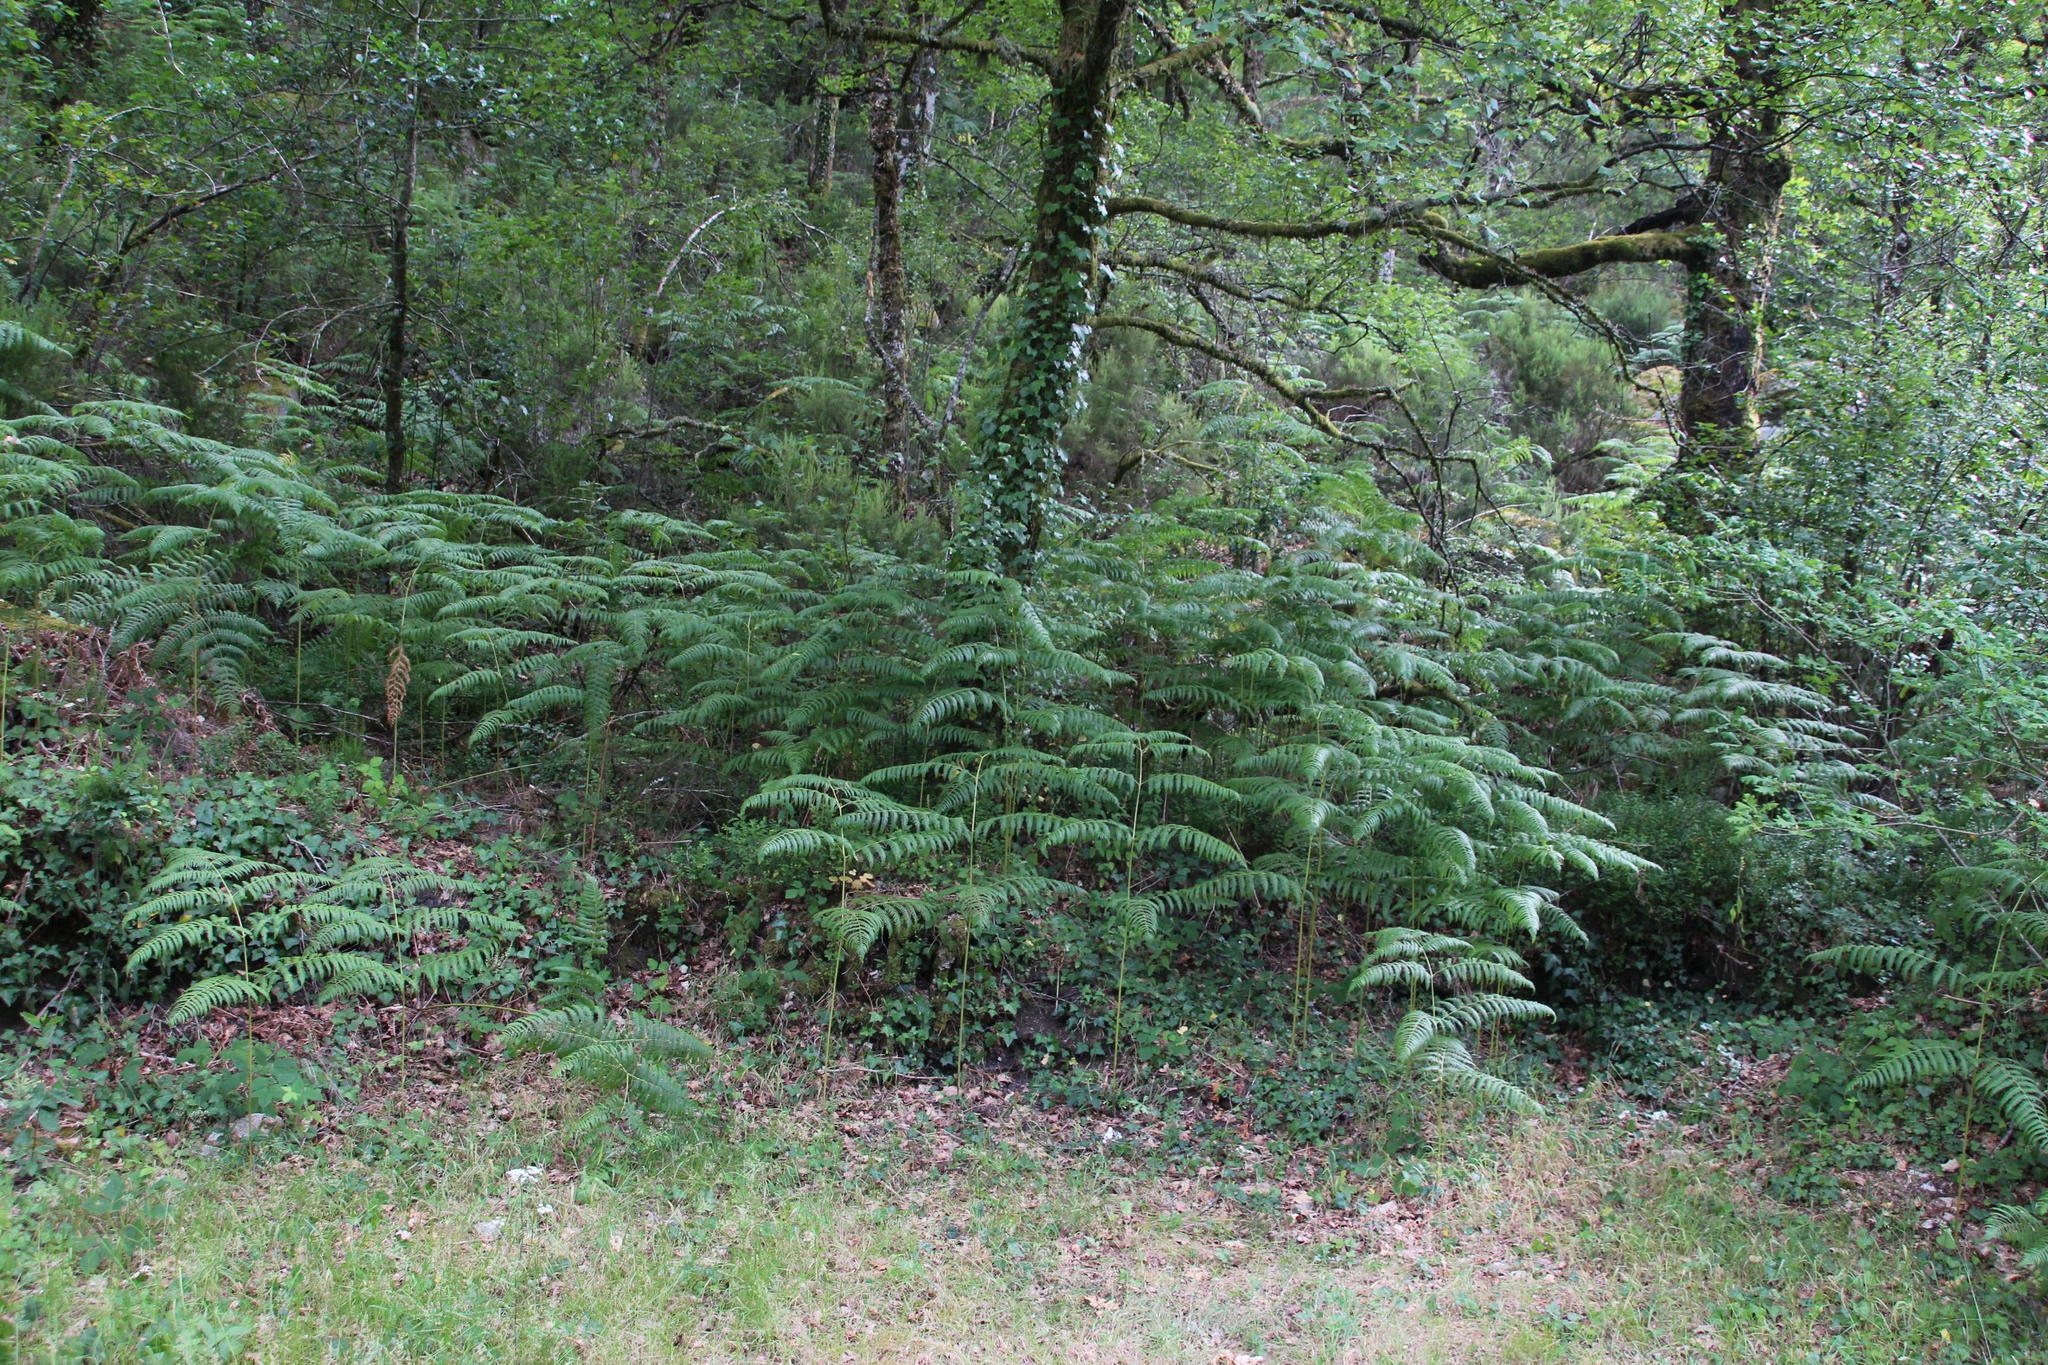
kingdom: Plantae
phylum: Tracheophyta
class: Polypodiopsida
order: Polypodiales
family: Dennstaedtiaceae
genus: Pteridium
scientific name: Pteridium aquilinum
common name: Bracken
